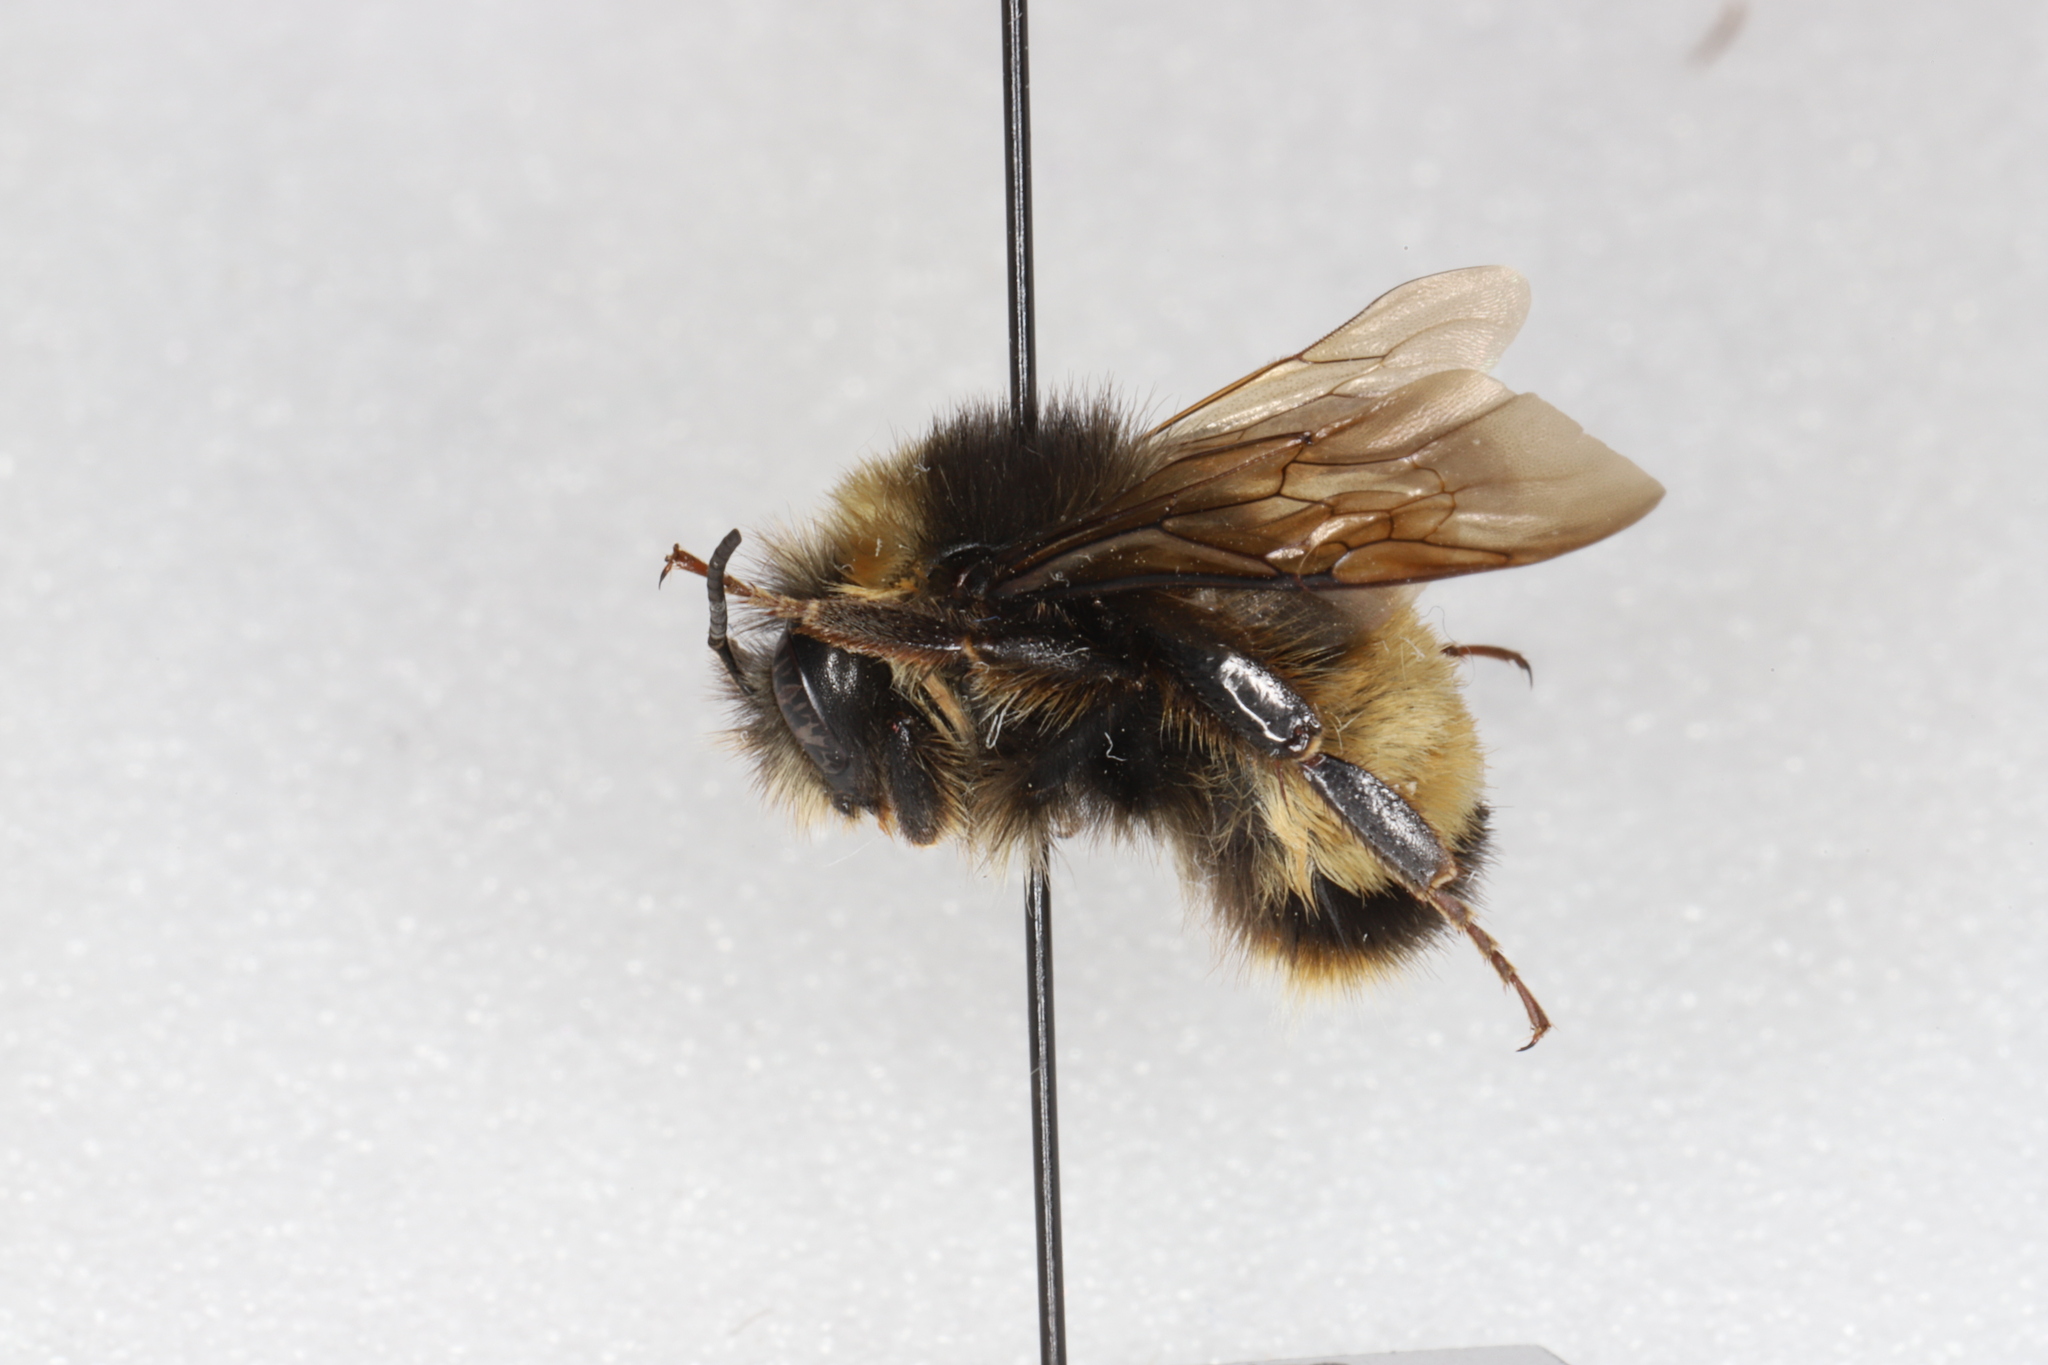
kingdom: Animalia
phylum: Arthropoda
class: Insecta
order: Hymenoptera
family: Apidae
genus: Bombus
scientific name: Bombus terricola
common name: Yellow-banded bumble bee
